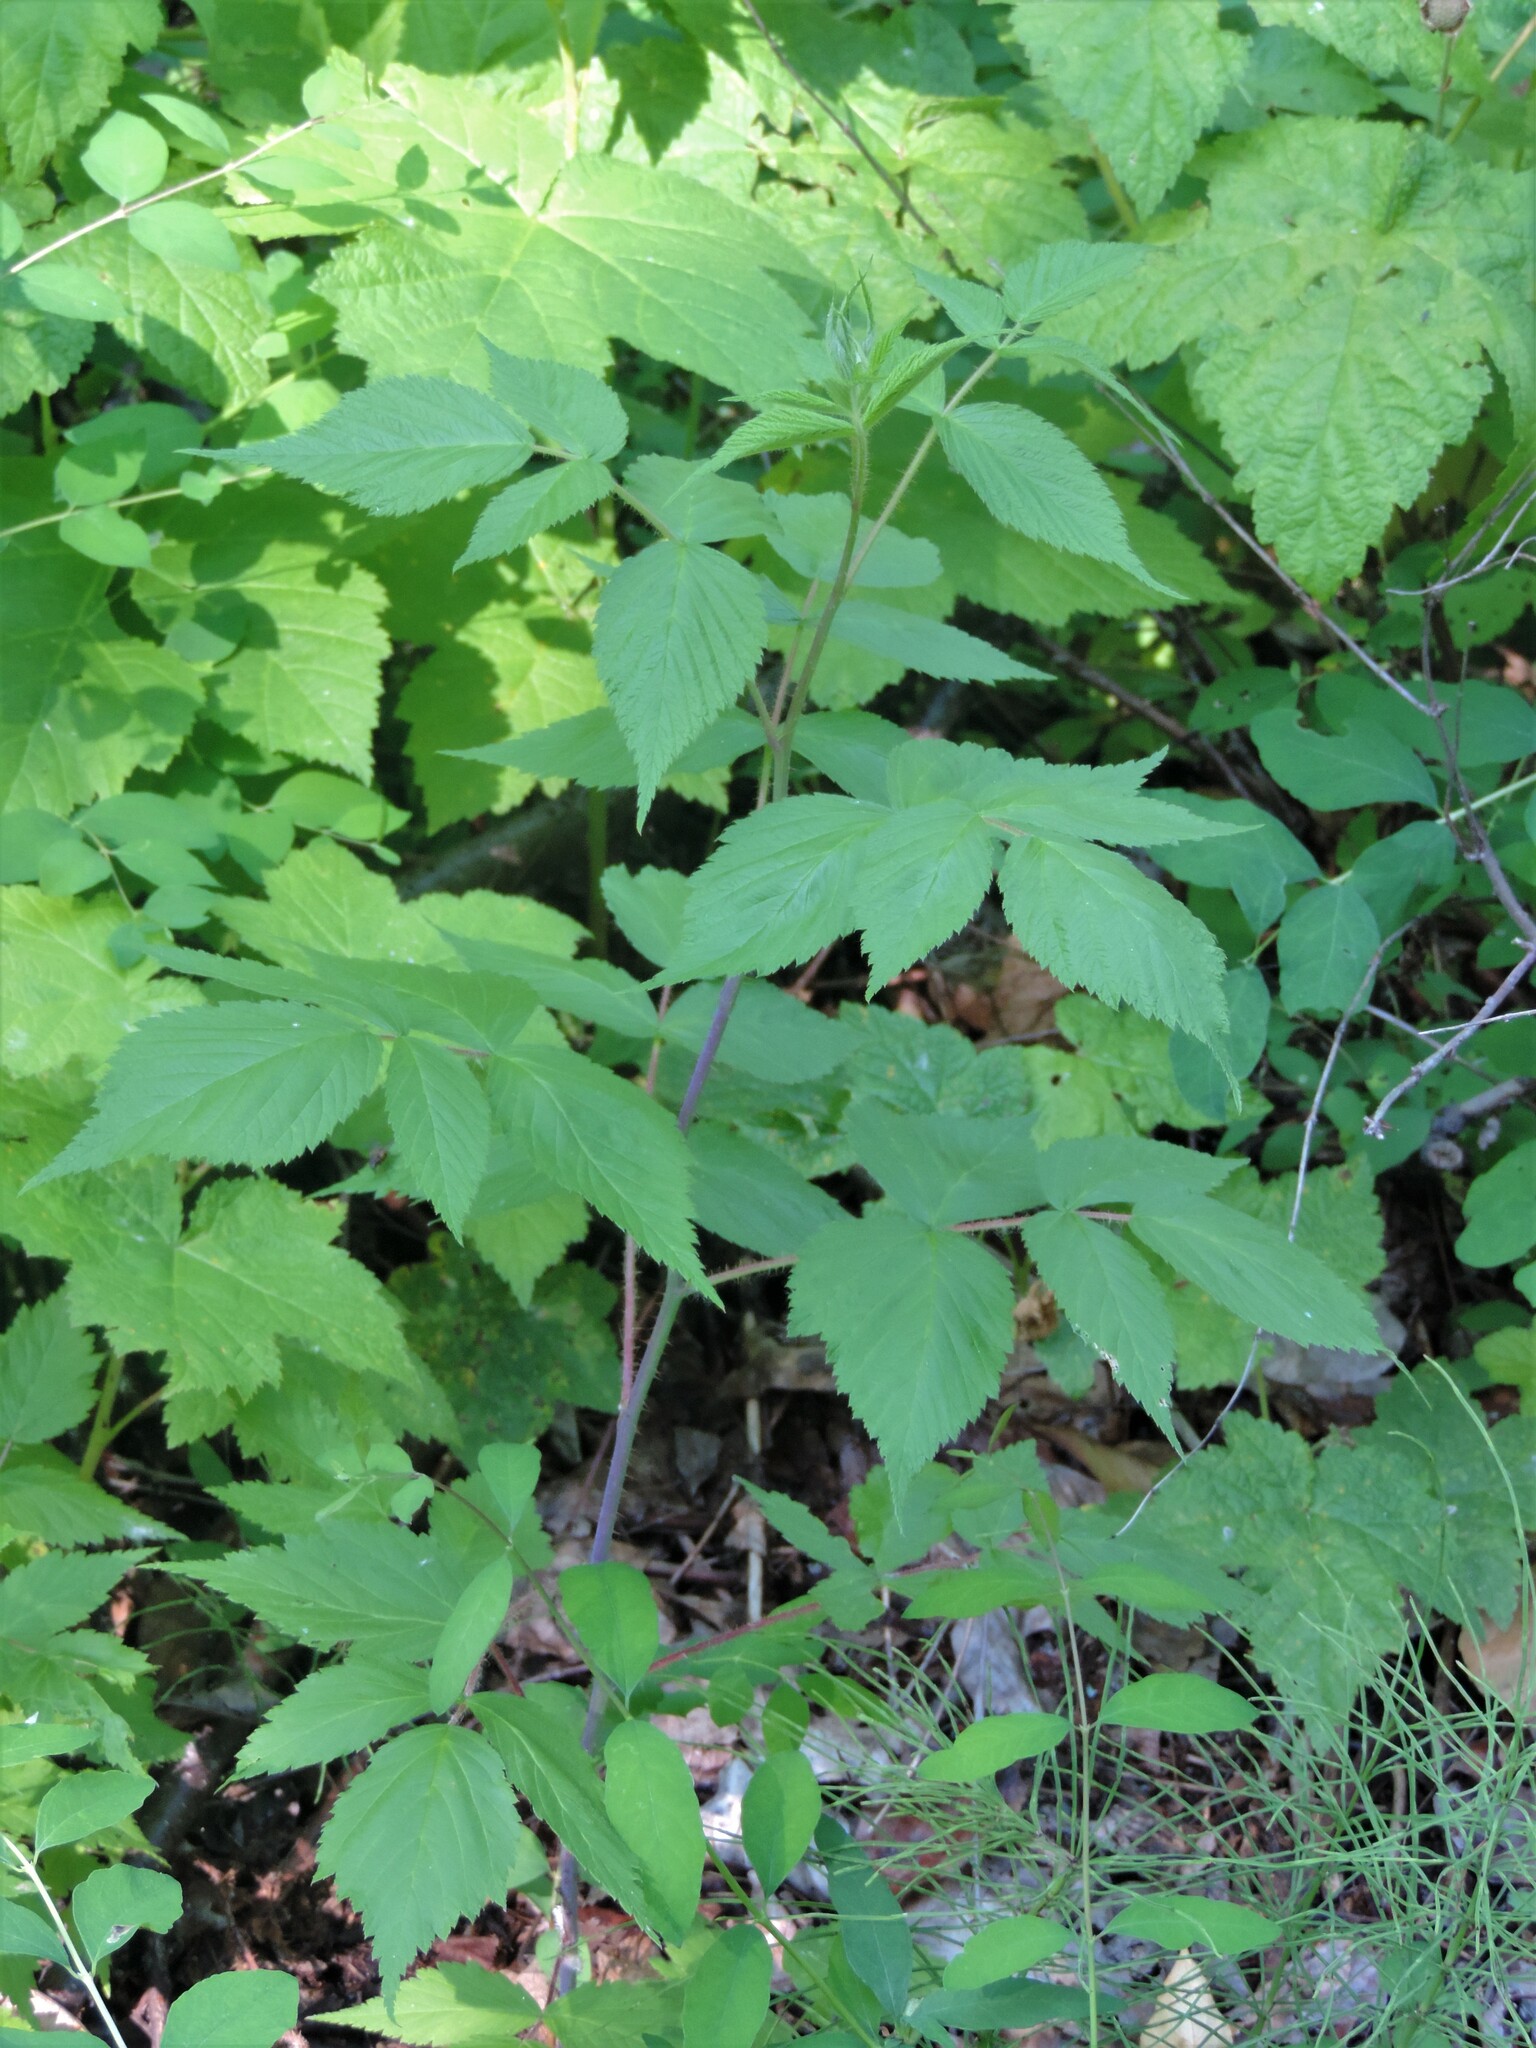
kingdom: Plantae
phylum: Tracheophyta
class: Magnoliopsida
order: Rosales
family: Rosaceae
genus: Rubus
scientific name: Rubus idaeus
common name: Raspberry
